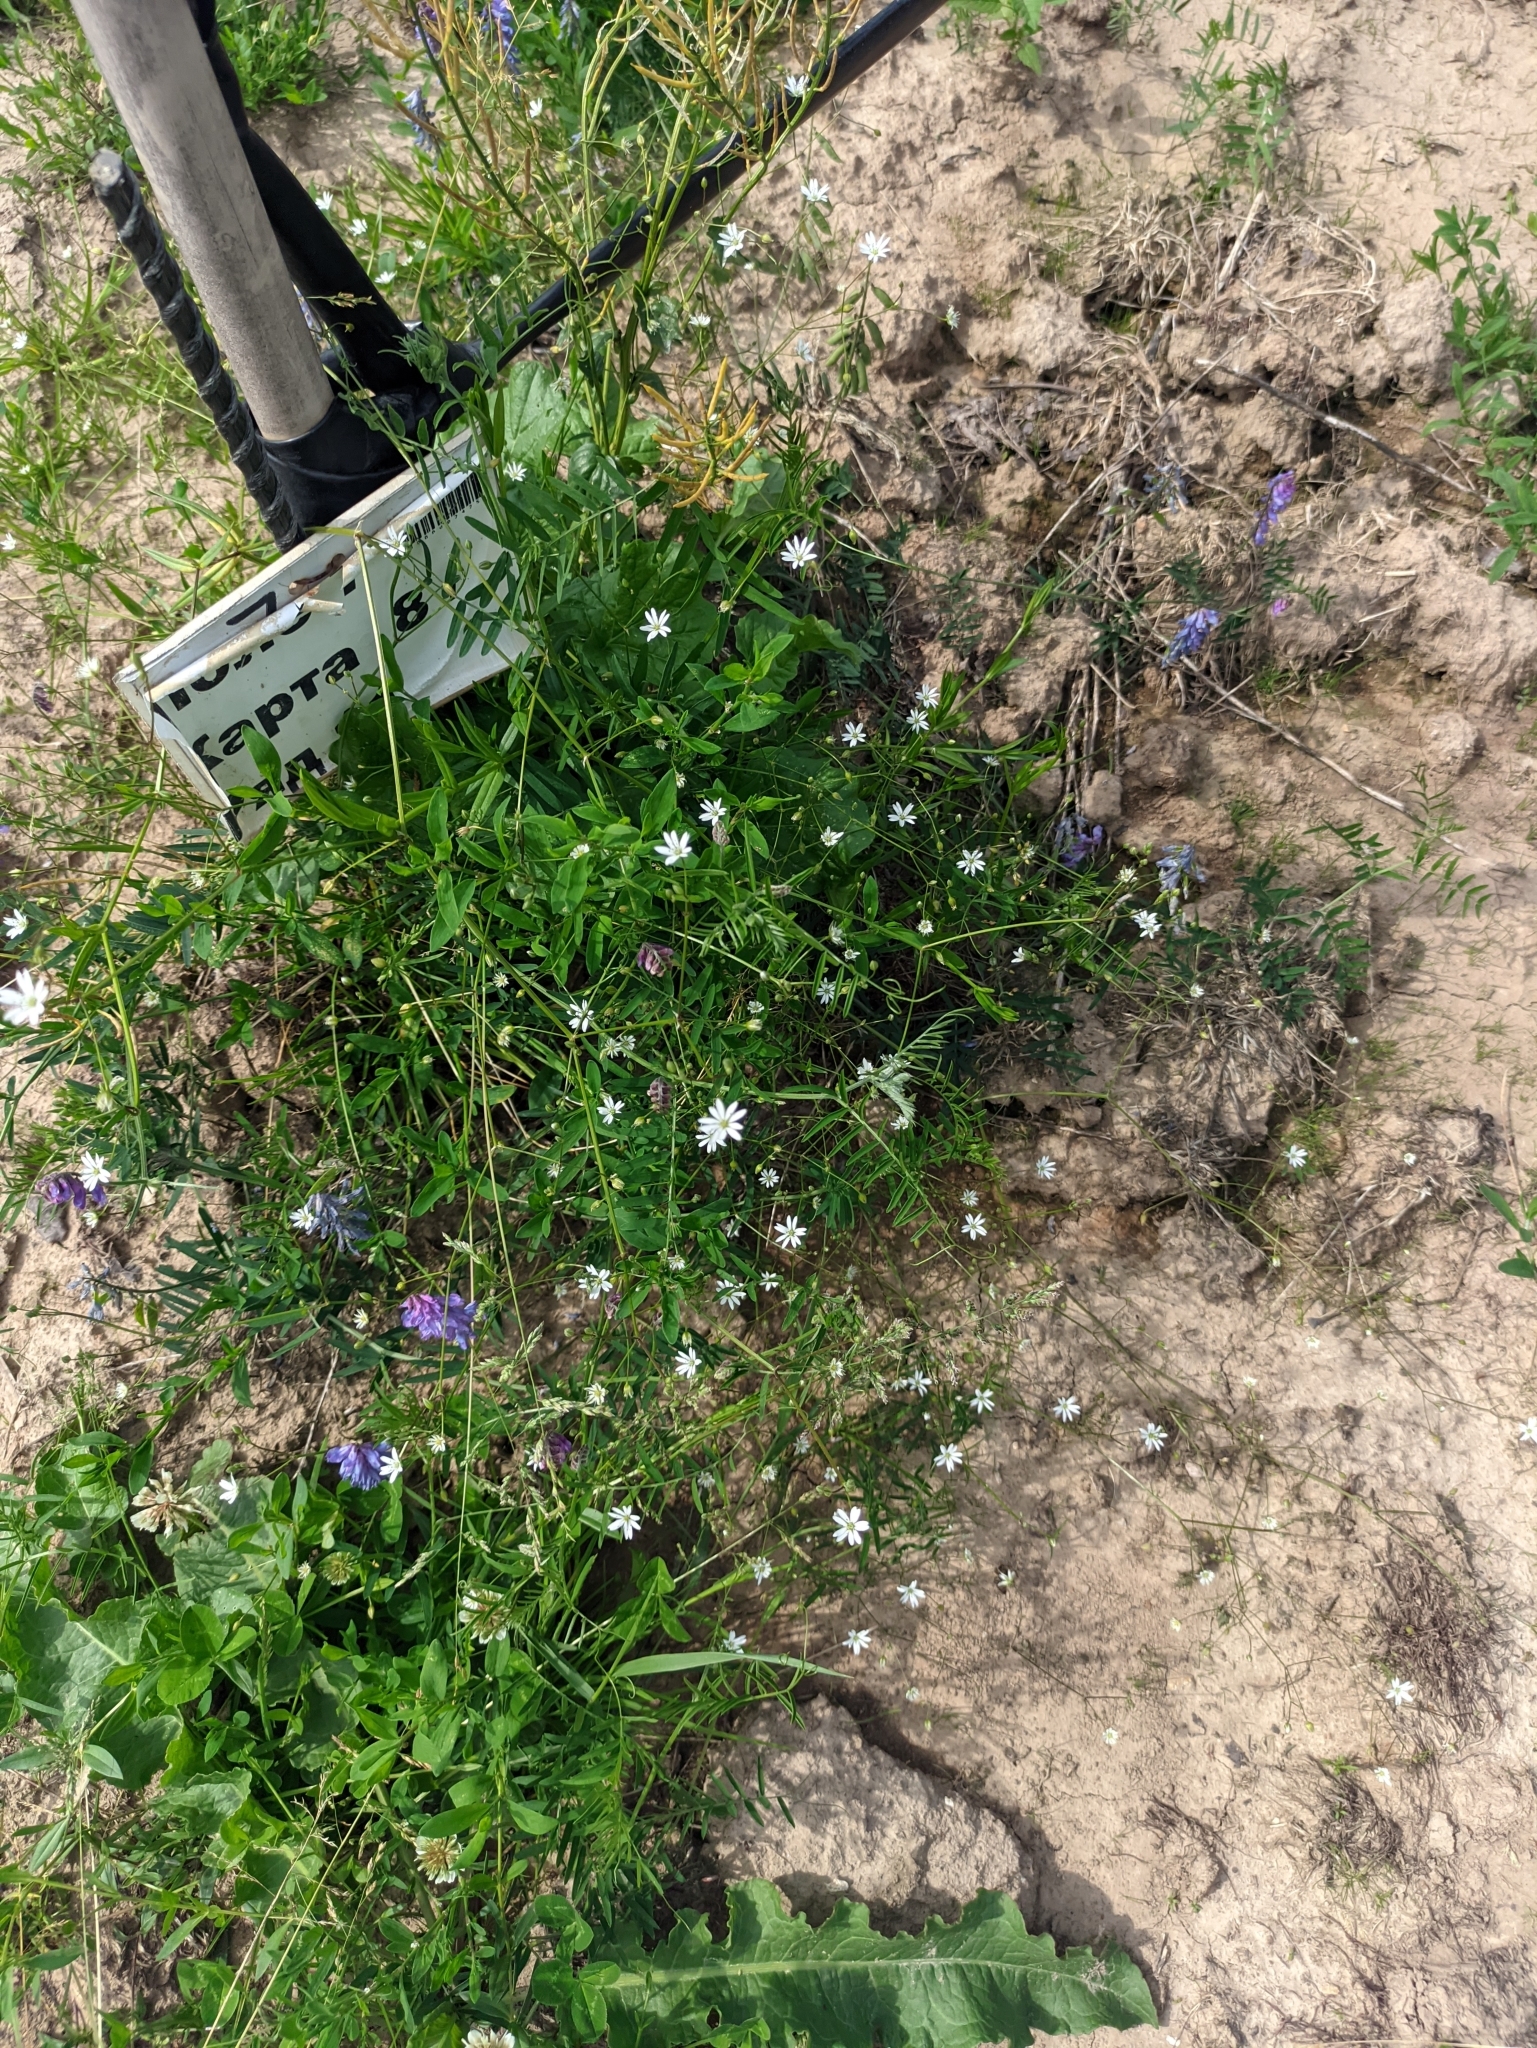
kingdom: Plantae
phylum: Tracheophyta
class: Magnoliopsida
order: Caryophyllales
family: Caryophyllaceae
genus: Stellaria
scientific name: Stellaria graminea
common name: Grass-like starwort
